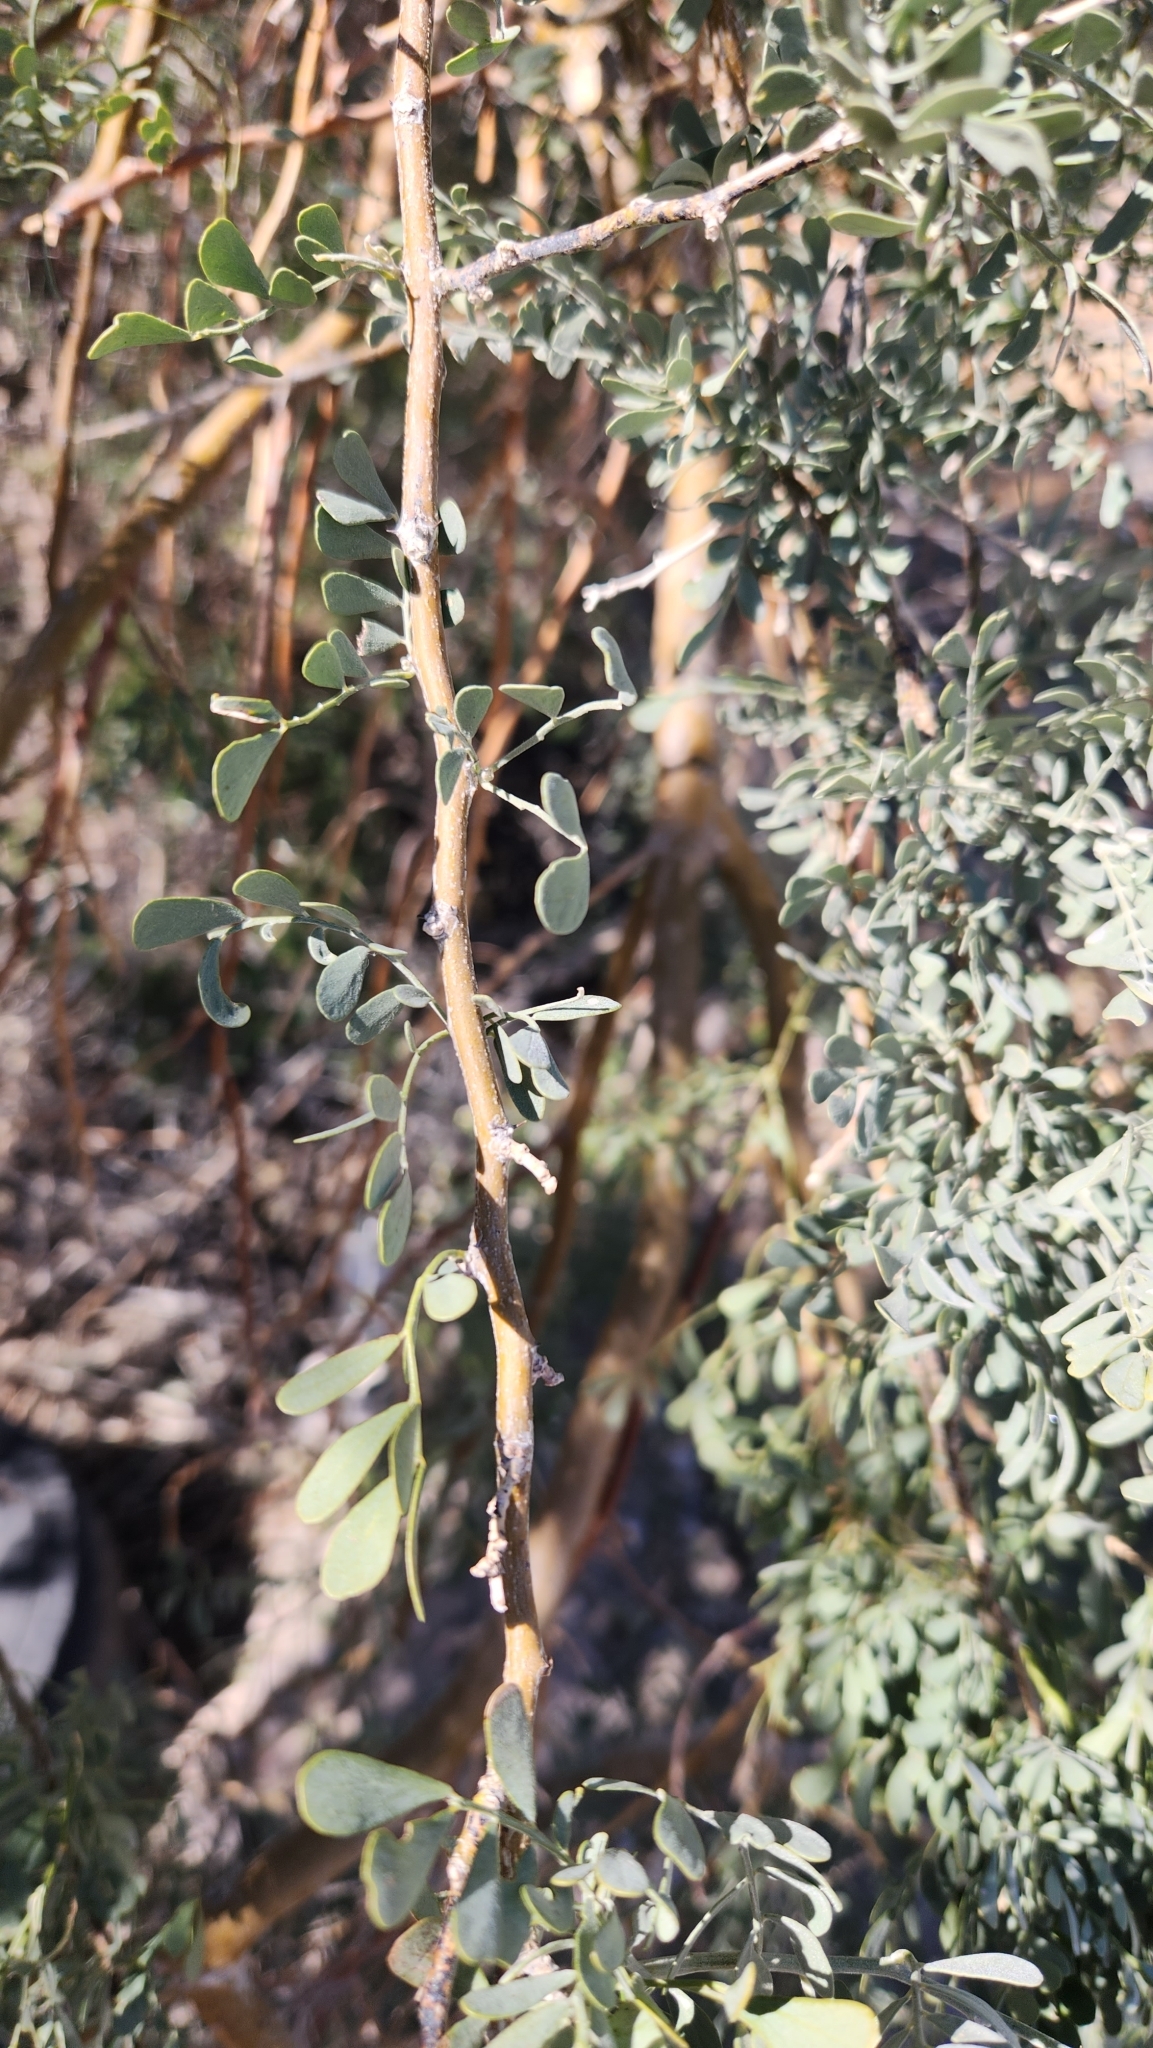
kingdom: Plantae
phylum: Tracheophyta
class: Magnoliopsida
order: Fabales
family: Fabaceae
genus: Olneya
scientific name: Olneya tesota
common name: Desert ironwood
